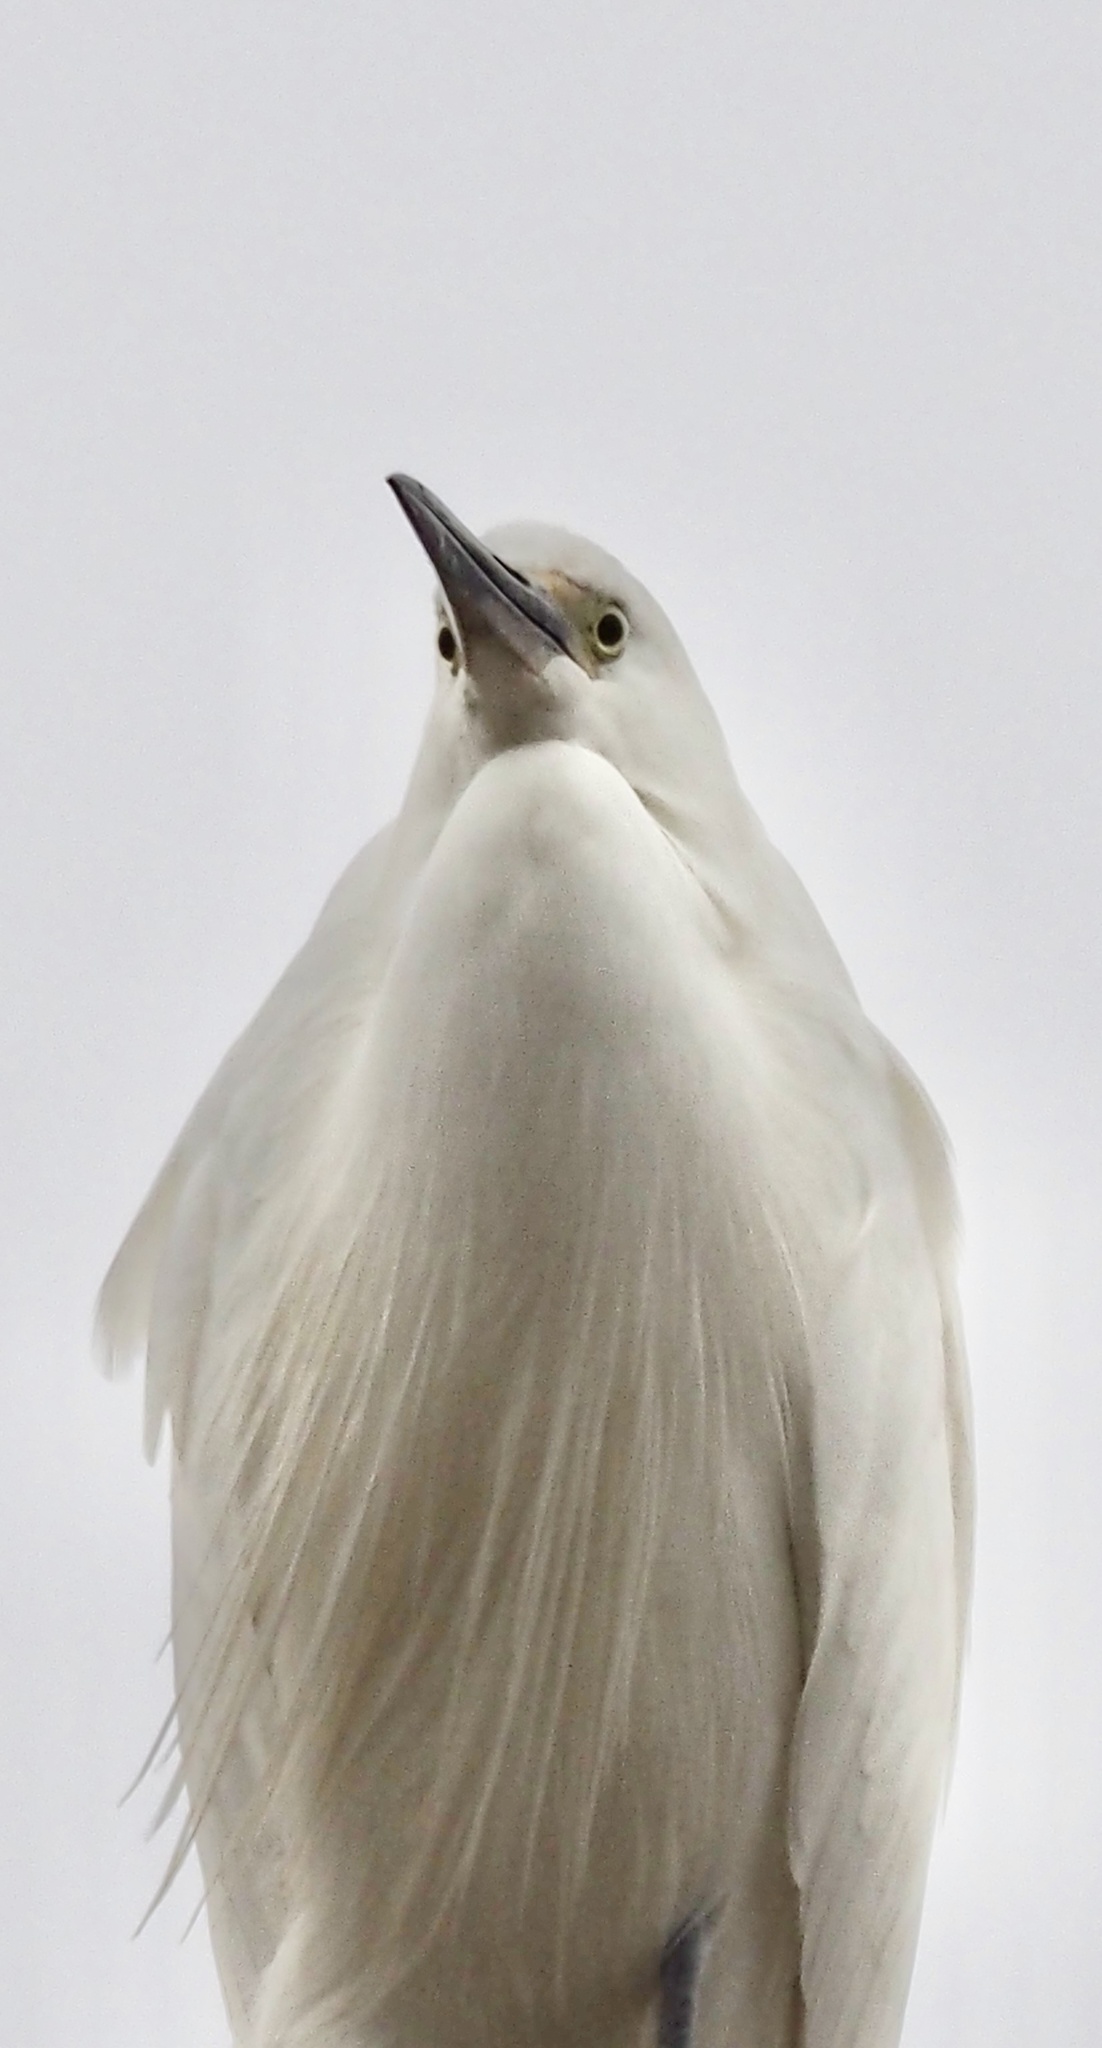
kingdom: Animalia
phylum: Chordata
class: Aves
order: Pelecaniformes
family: Ardeidae
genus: Egretta
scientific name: Egretta garzetta
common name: Little egret
